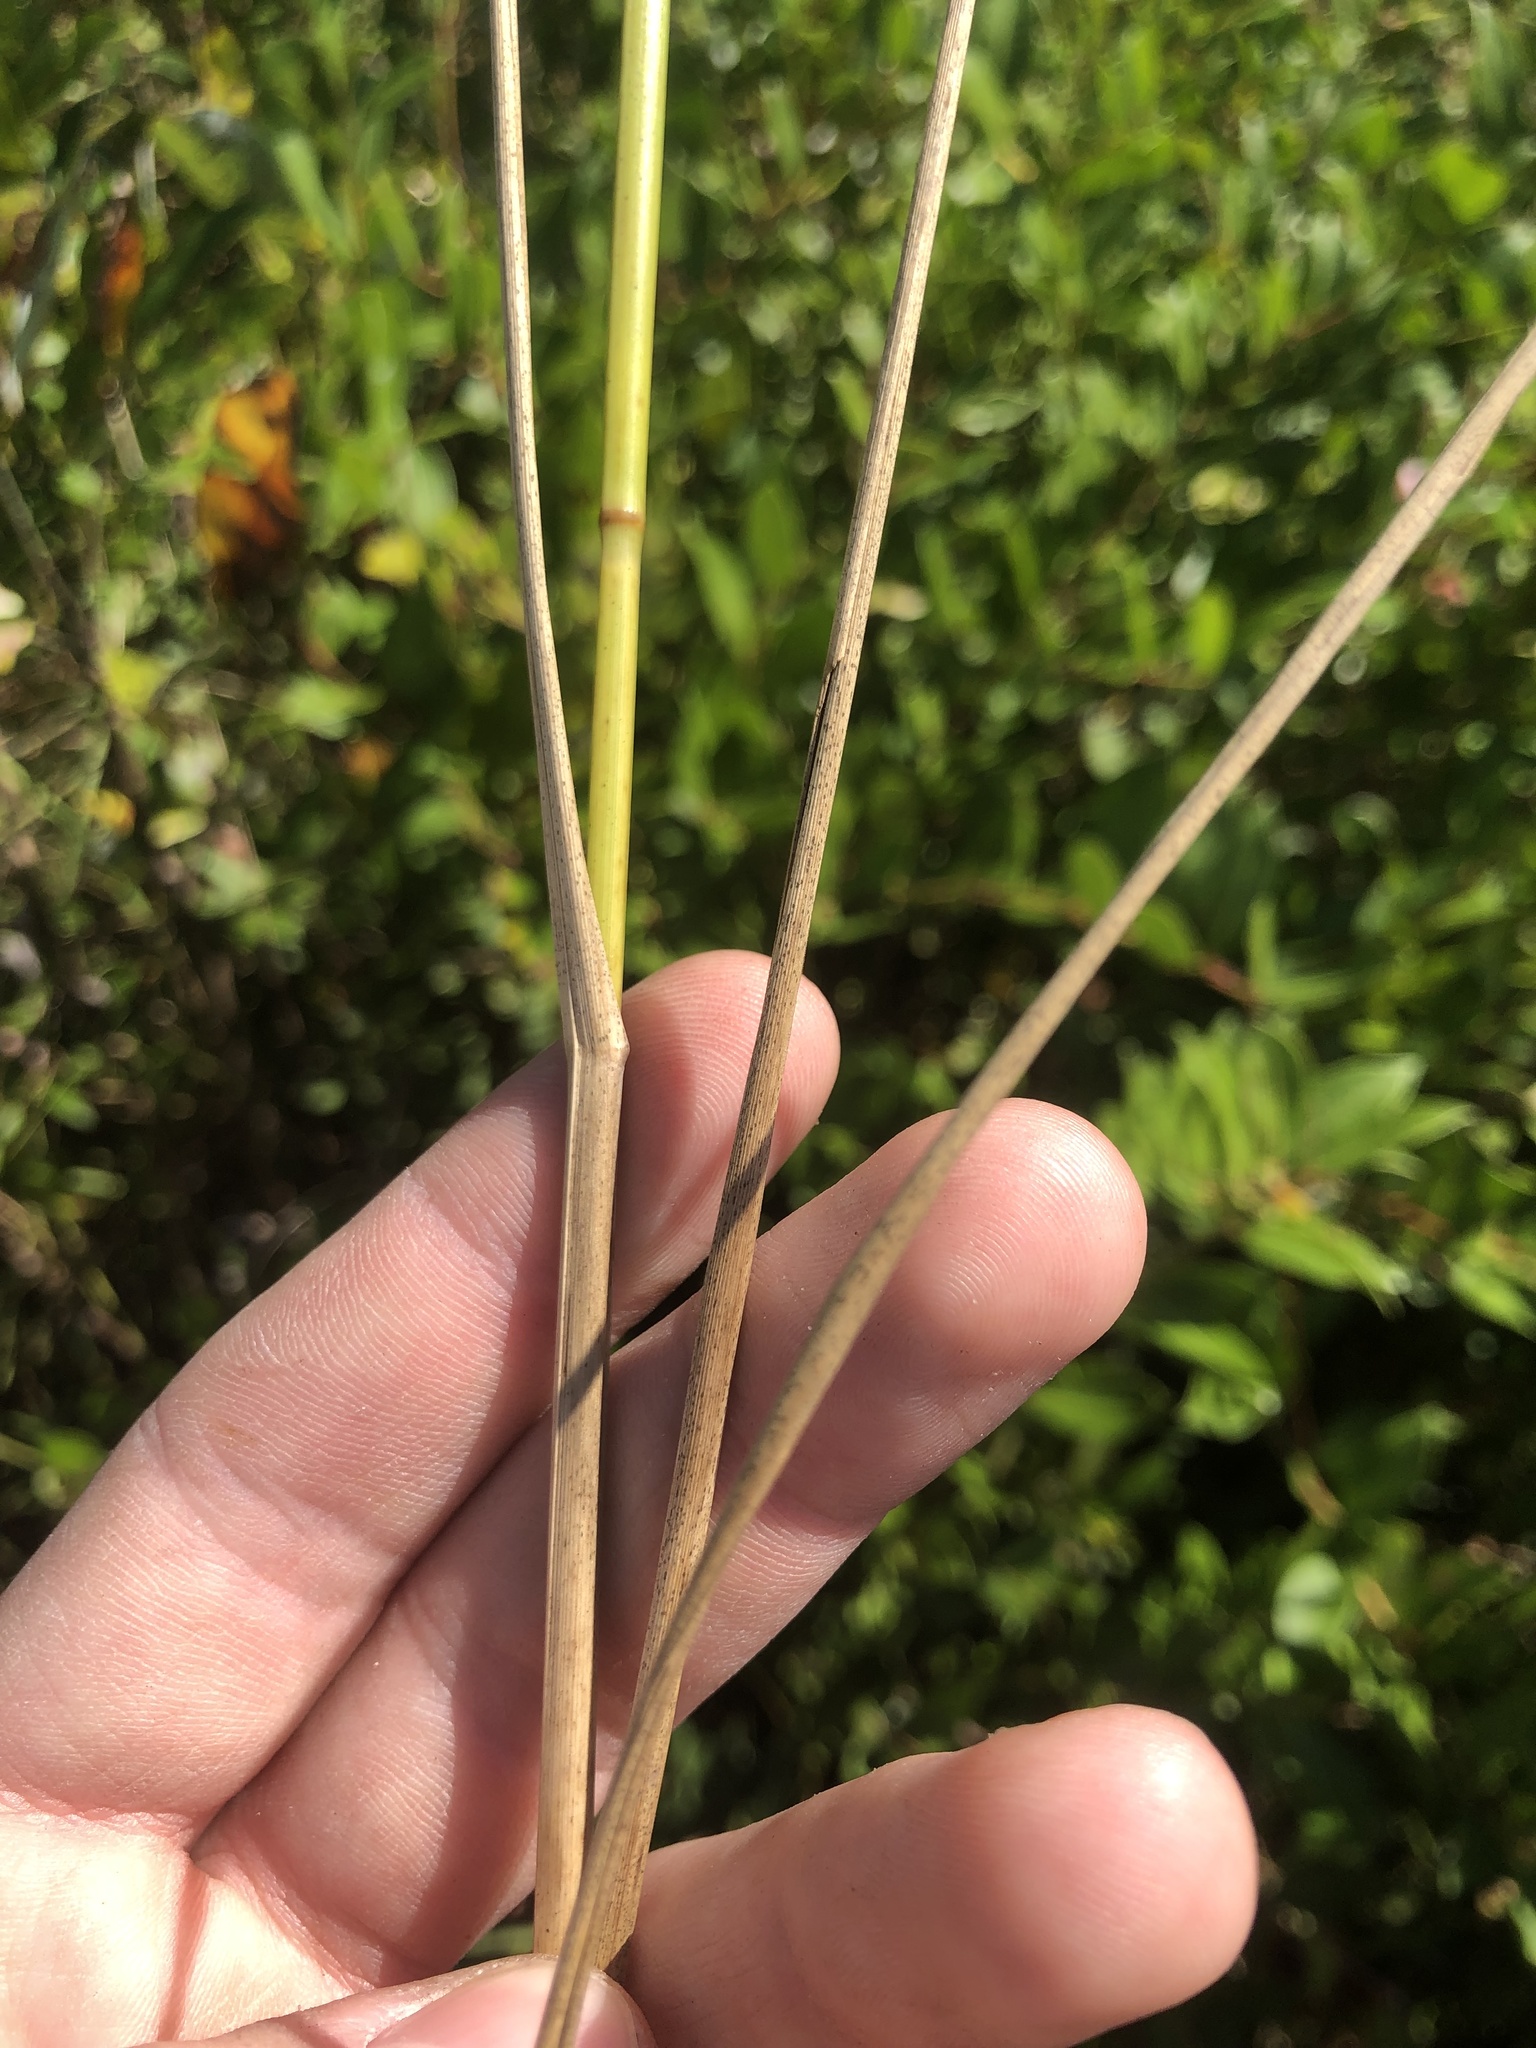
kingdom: Plantae
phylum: Tracheophyta
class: Liliopsida
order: Poales
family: Poaceae
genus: Glyceria
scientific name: Glyceria obtusa
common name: Atlantic mannagrass
